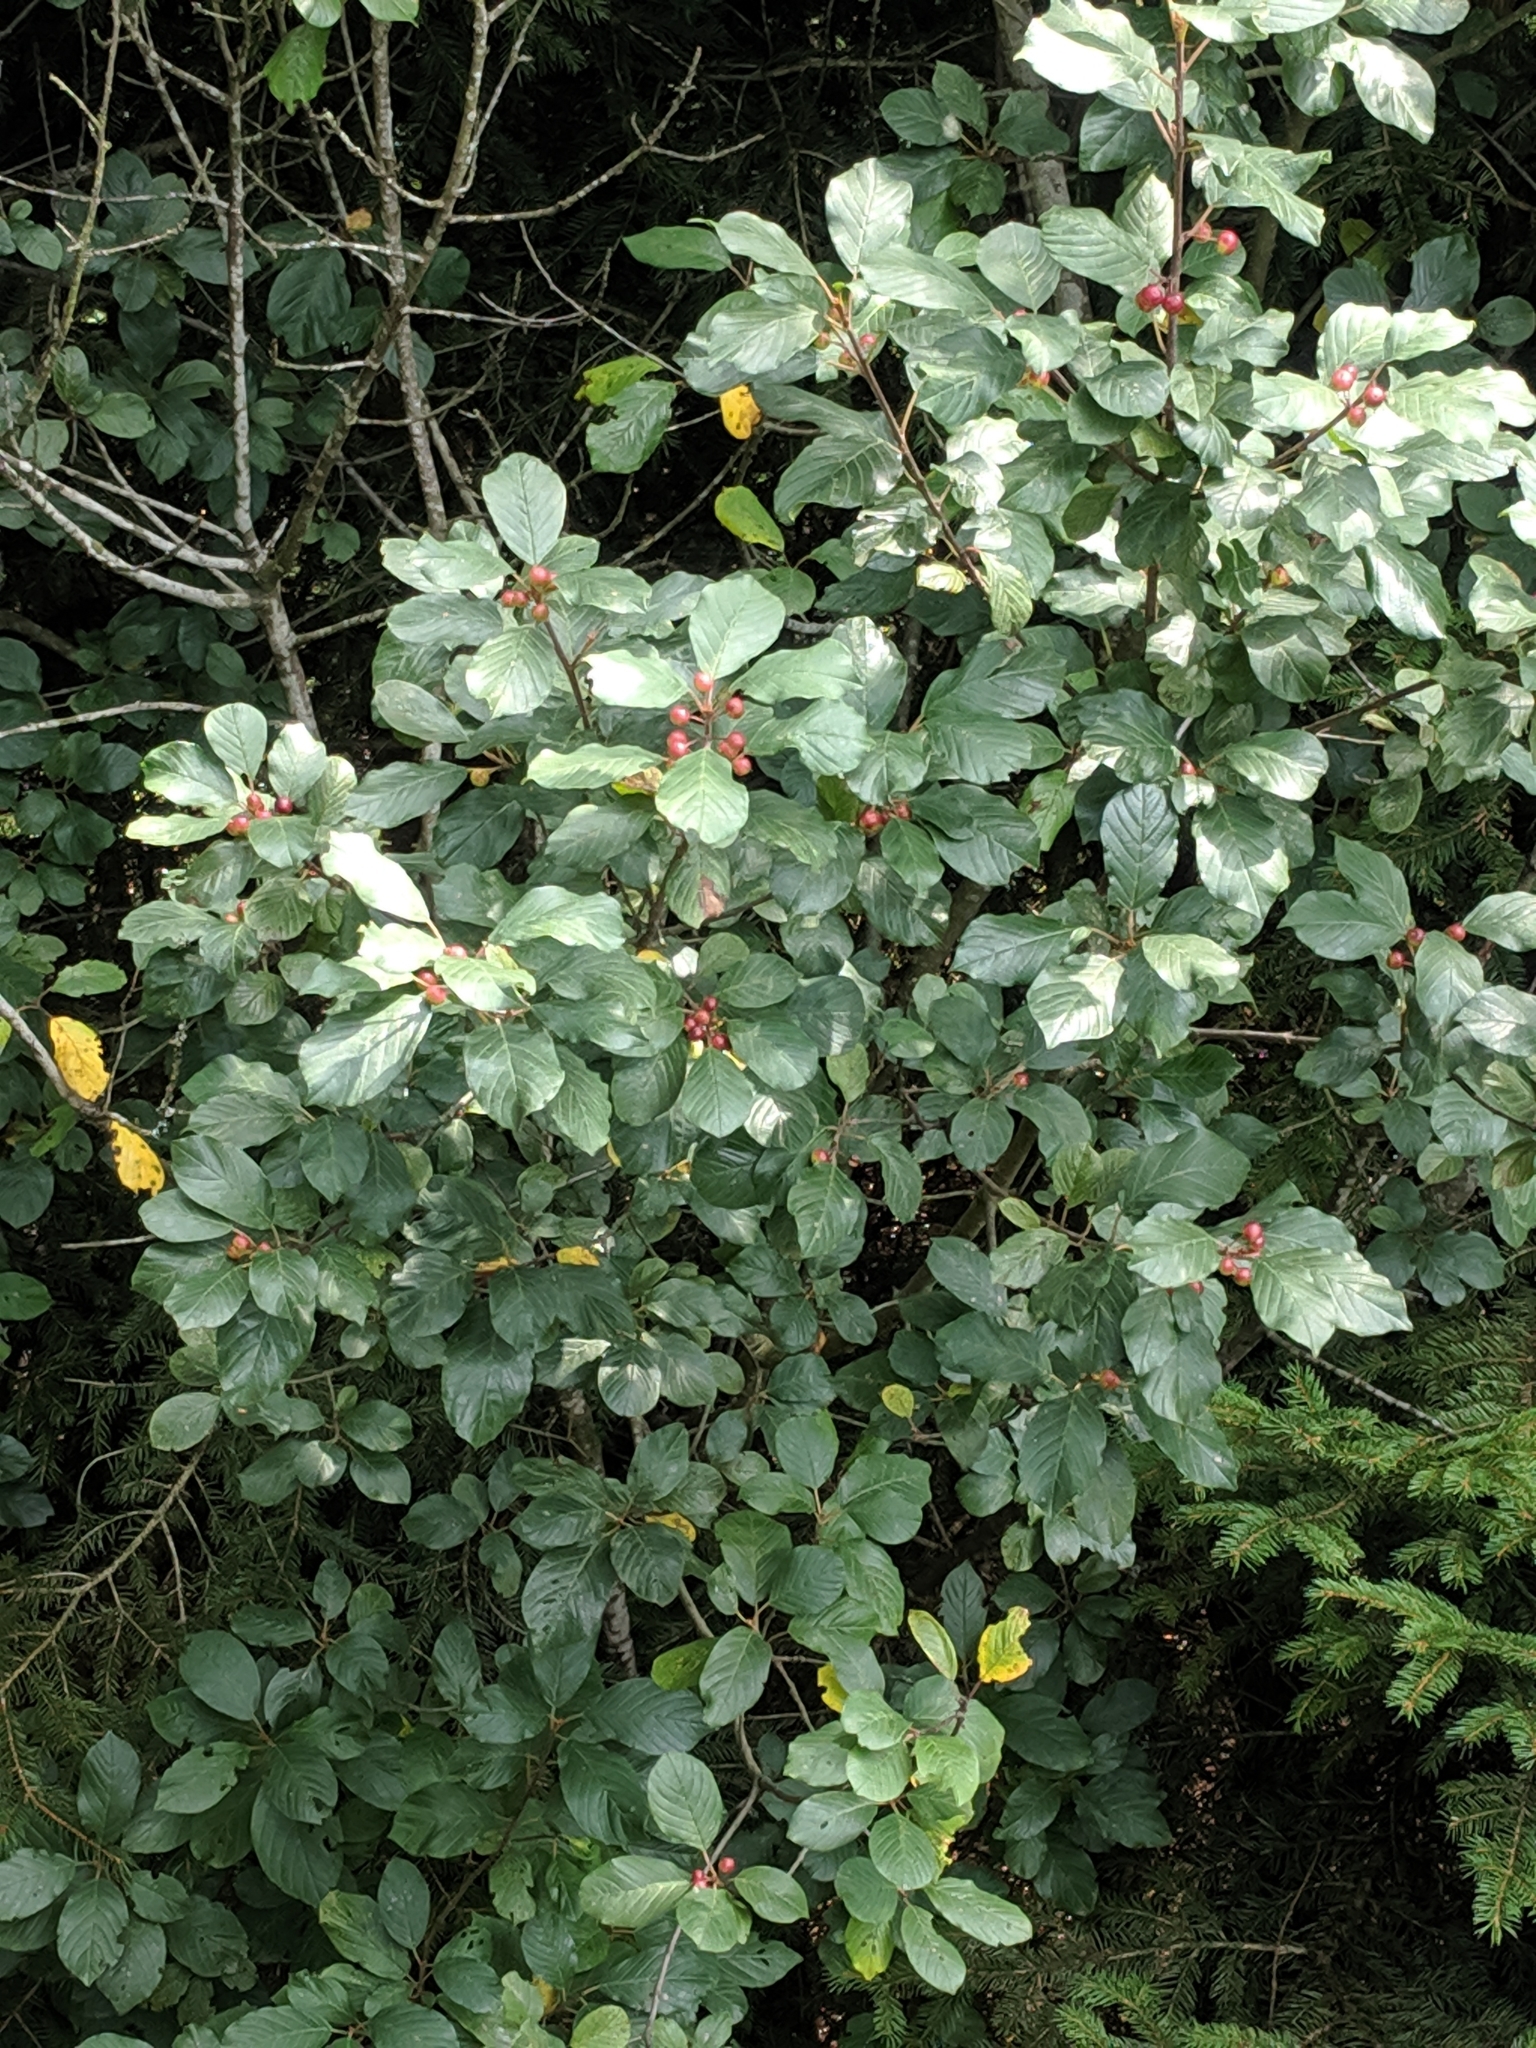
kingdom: Plantae
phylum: Tracheophyta
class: Magnoliopsida
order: Rosales
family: Rhamnaceae
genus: Frangula
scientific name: Frangula alnus
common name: Alder buckthorn
